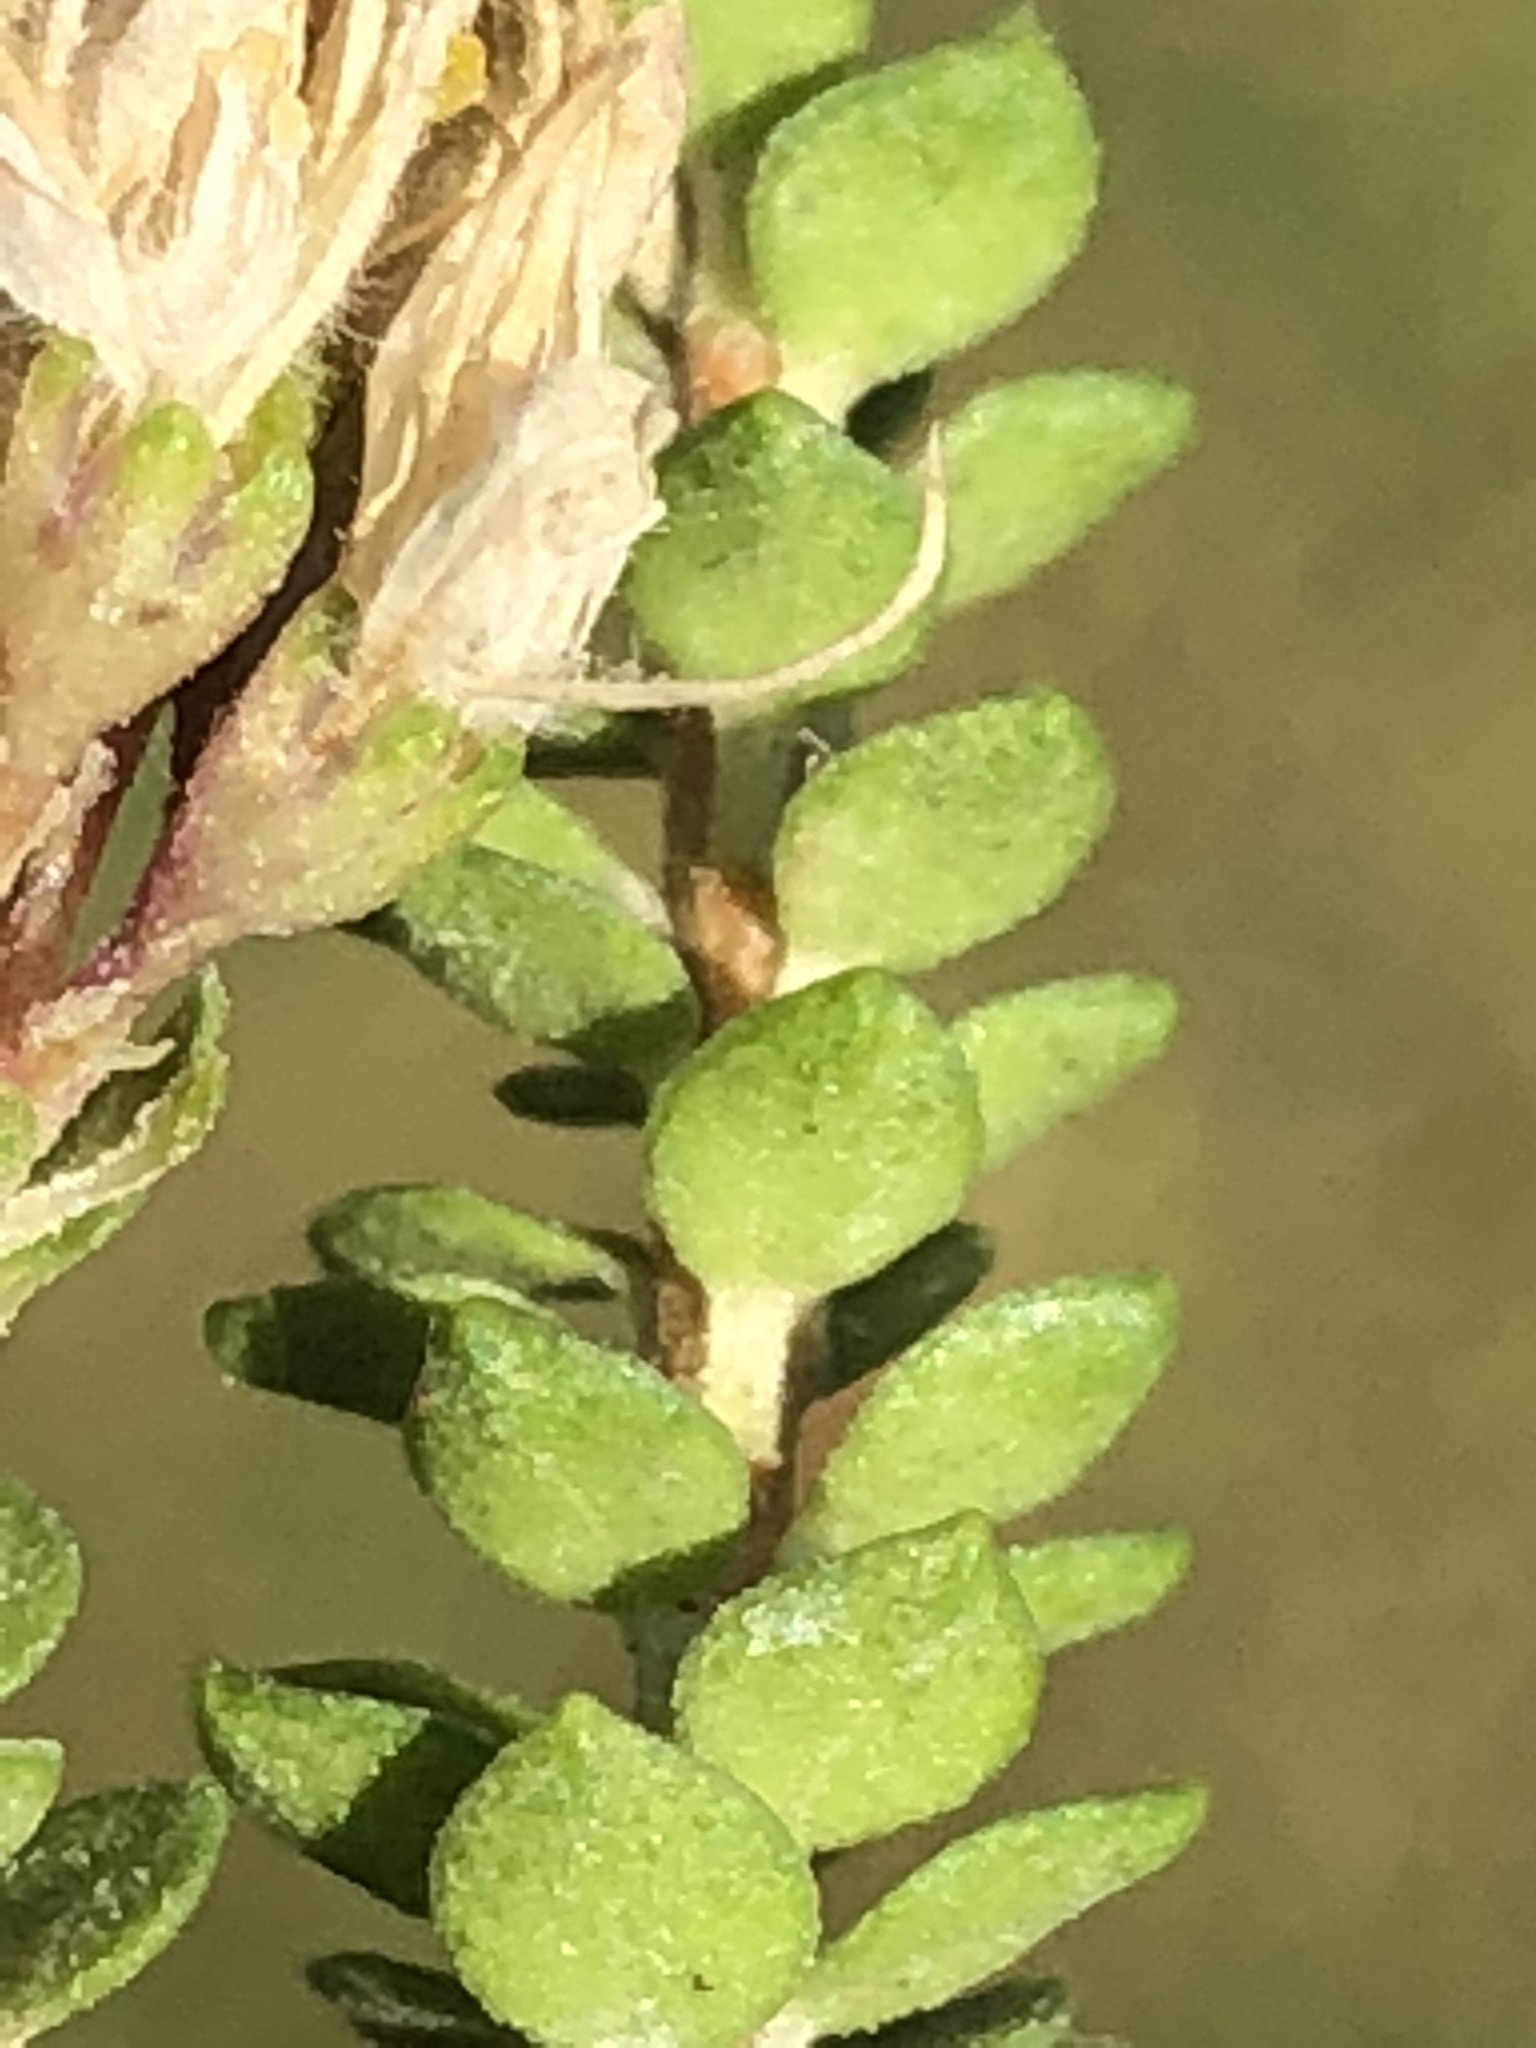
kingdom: Plantae
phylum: Tracheophyta
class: Magnoliopsida
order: Sapindales
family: Rutaceae
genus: Agathosma
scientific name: Agathosma cerefolia
